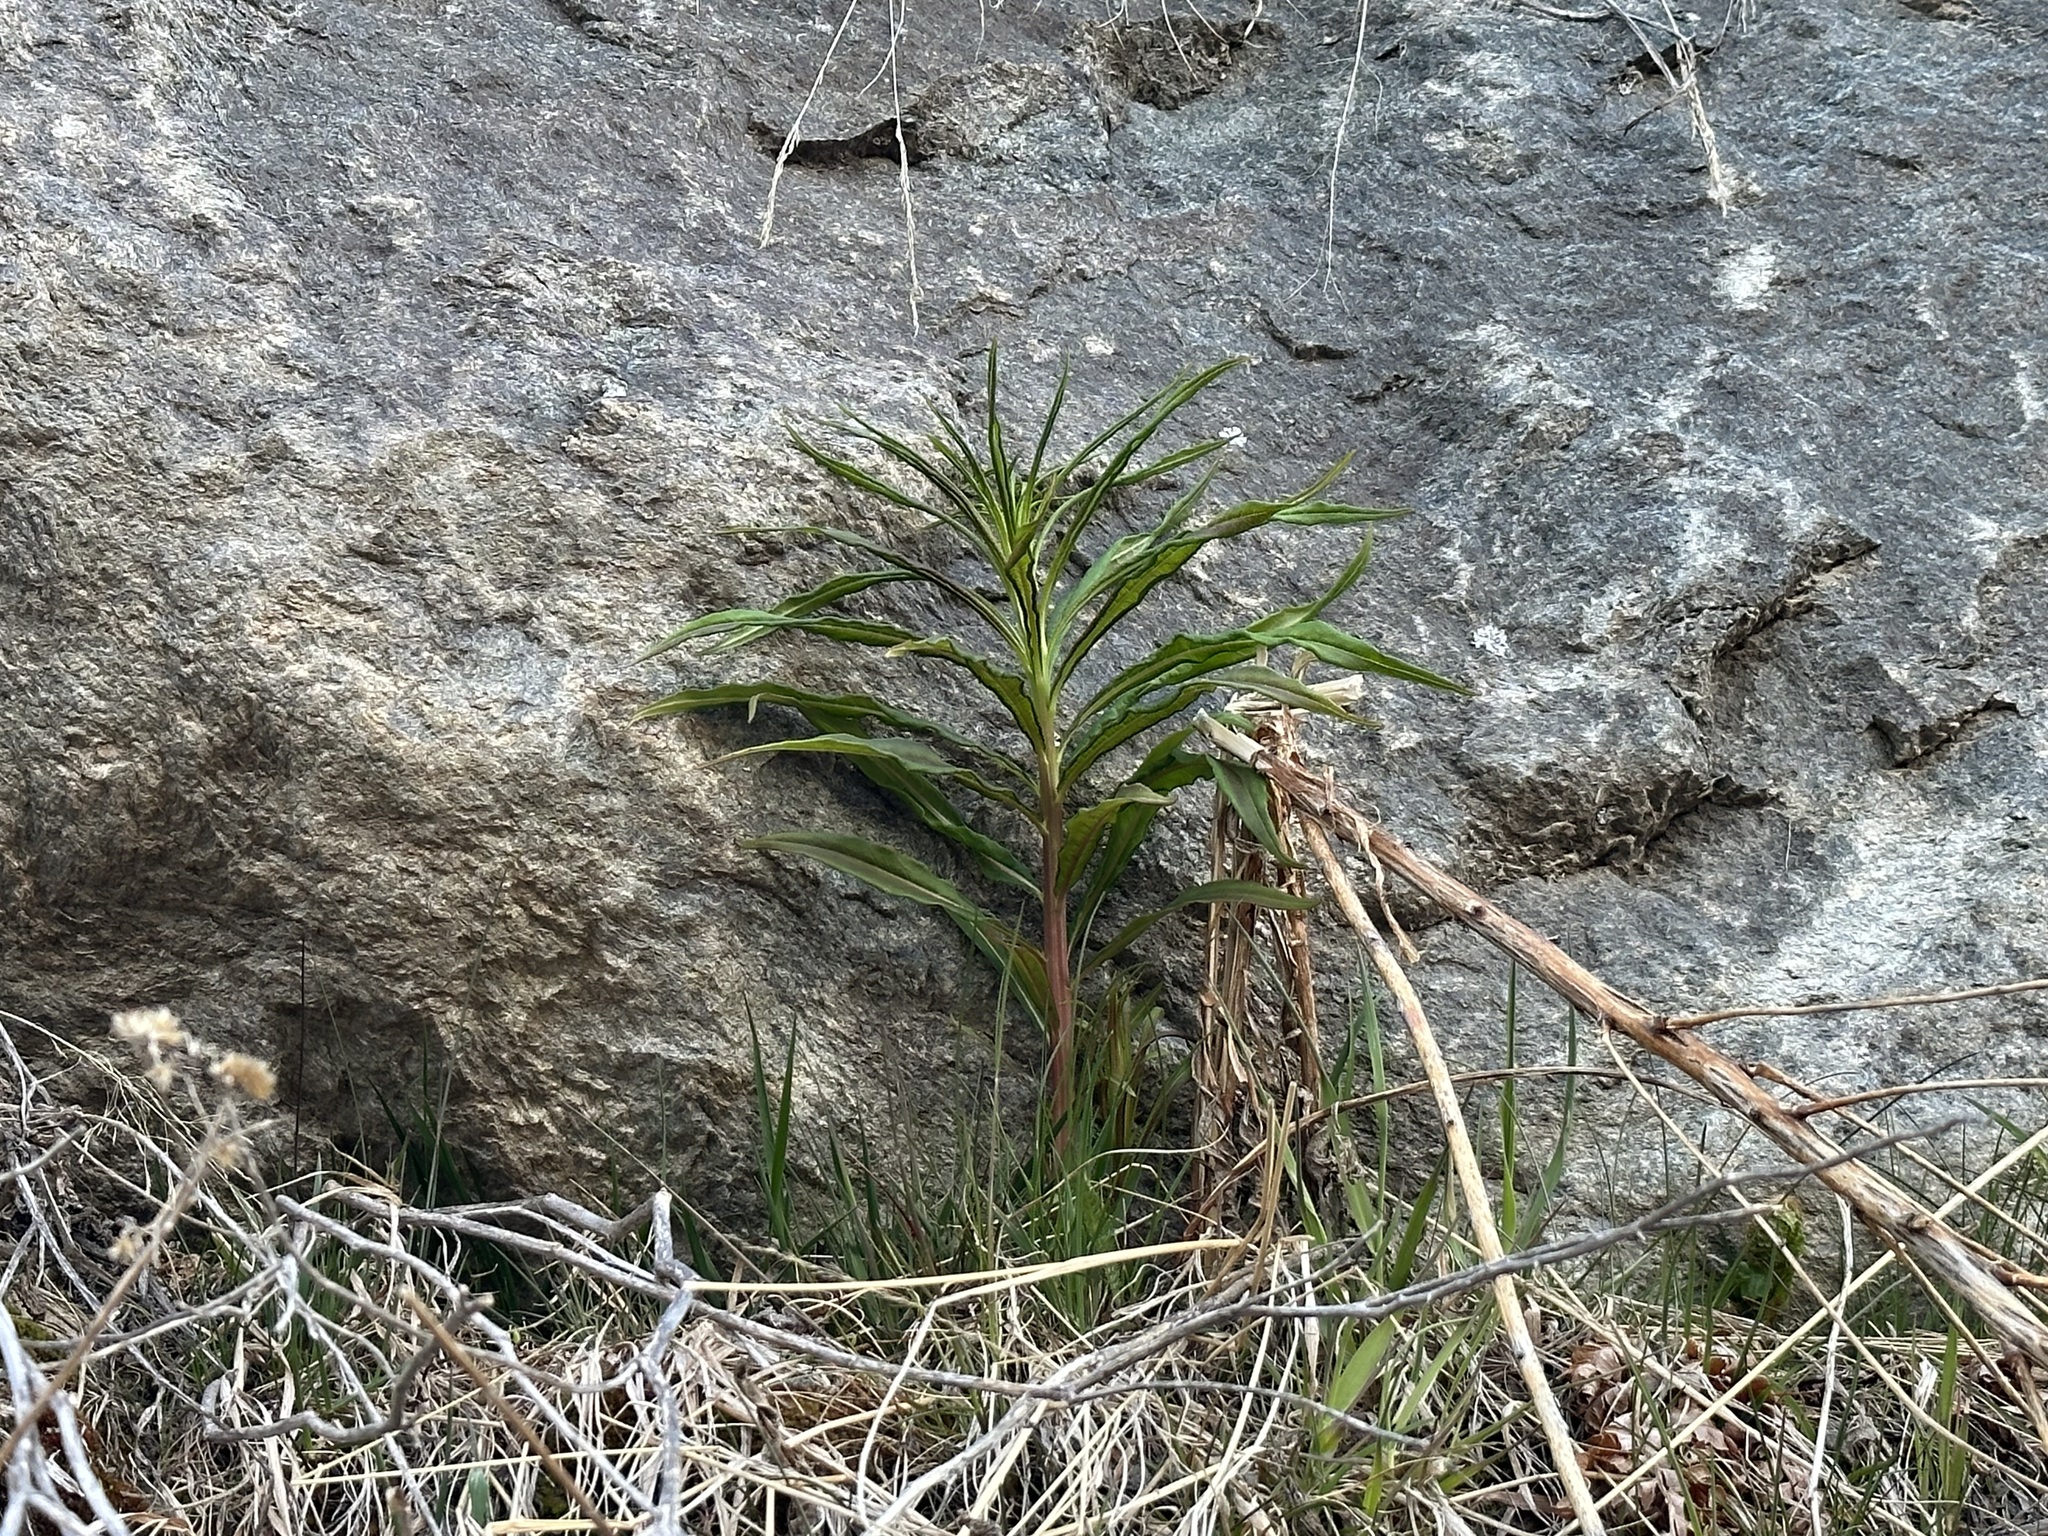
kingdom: Plantae
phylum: Tracheophyta
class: Magnoliopsida
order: Myrtales
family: Onagraceae
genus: Chamaenerion
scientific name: Chamaenerion angustifolium
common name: Fireweed
